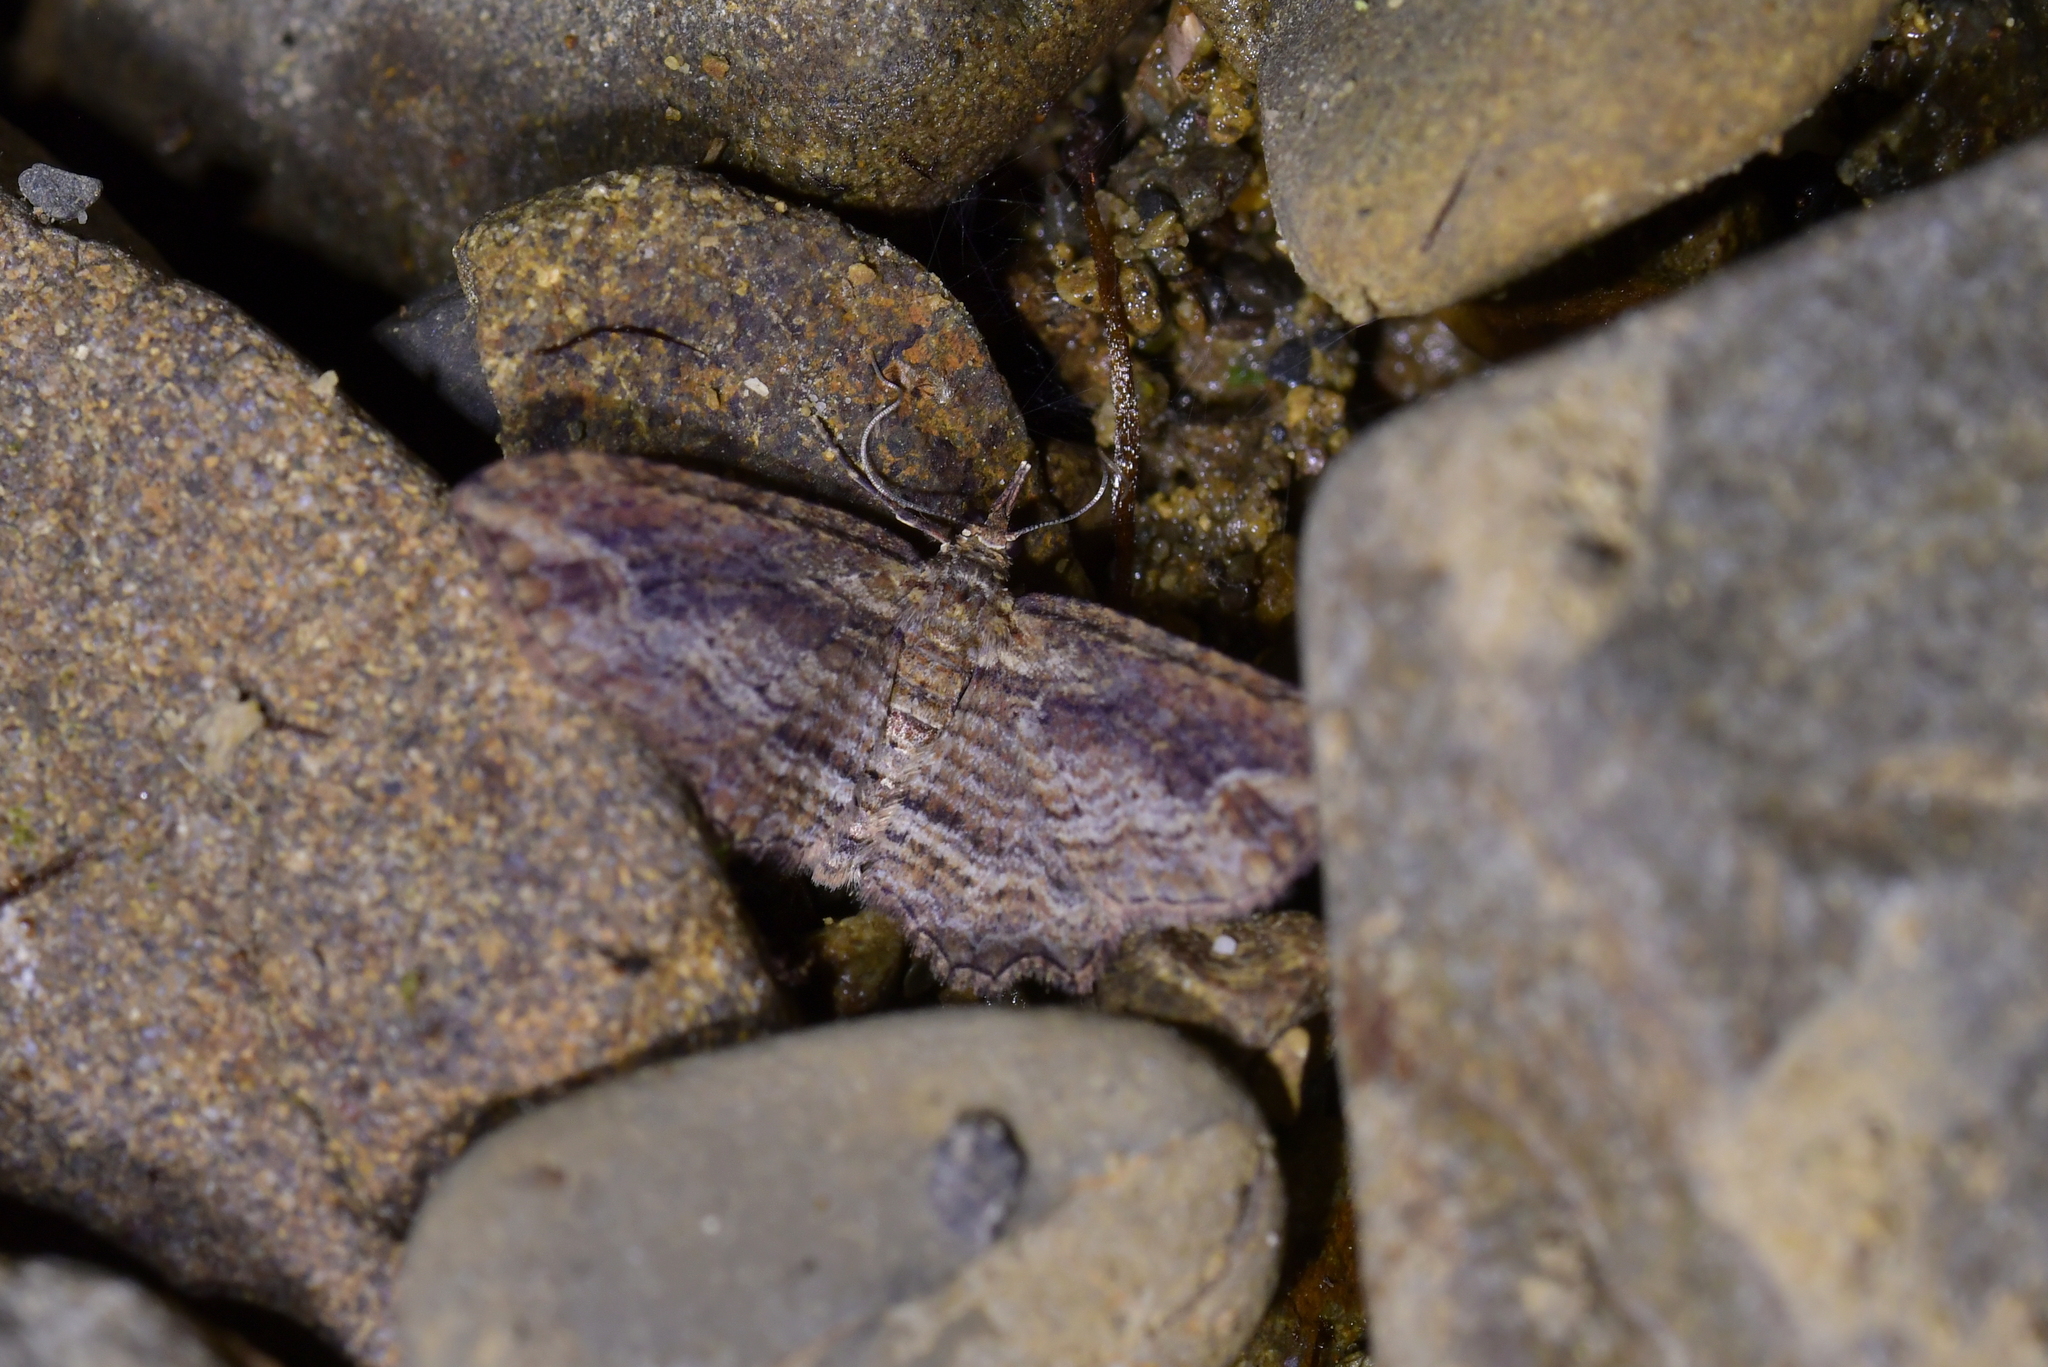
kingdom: Animalia
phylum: Arthropoda
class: Insecta
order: Lepidoptera
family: Geometridae
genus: Chloroclystis
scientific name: Chloroclystis filata
